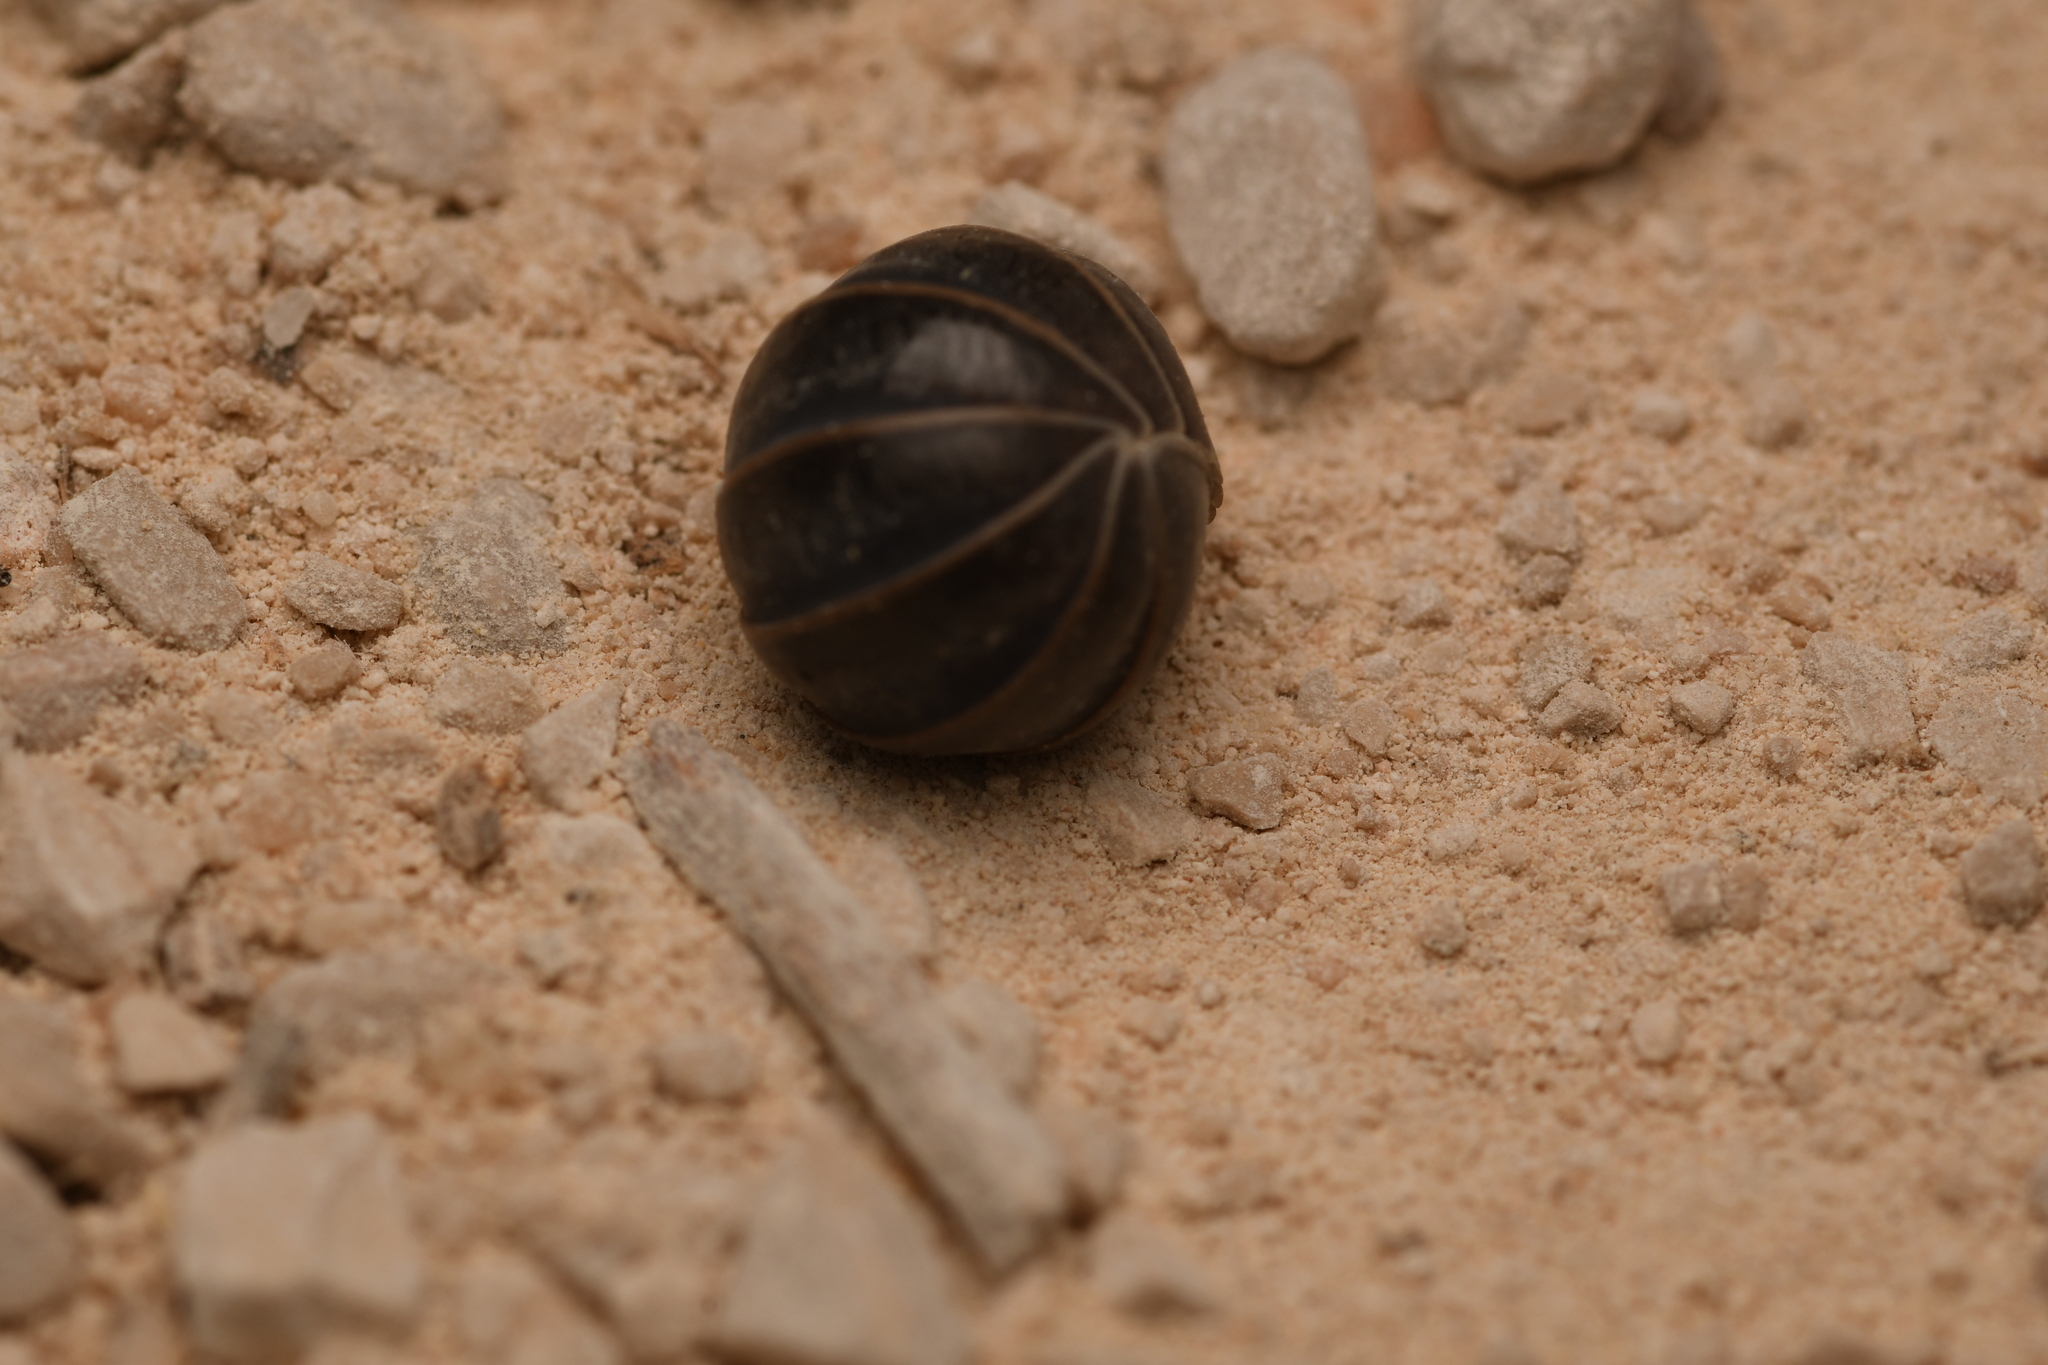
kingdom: Animalia
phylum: Arthropoda
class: Malacostraca
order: Isopoda
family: Armadillidae
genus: Armadillo
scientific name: Armadillo officinalis
